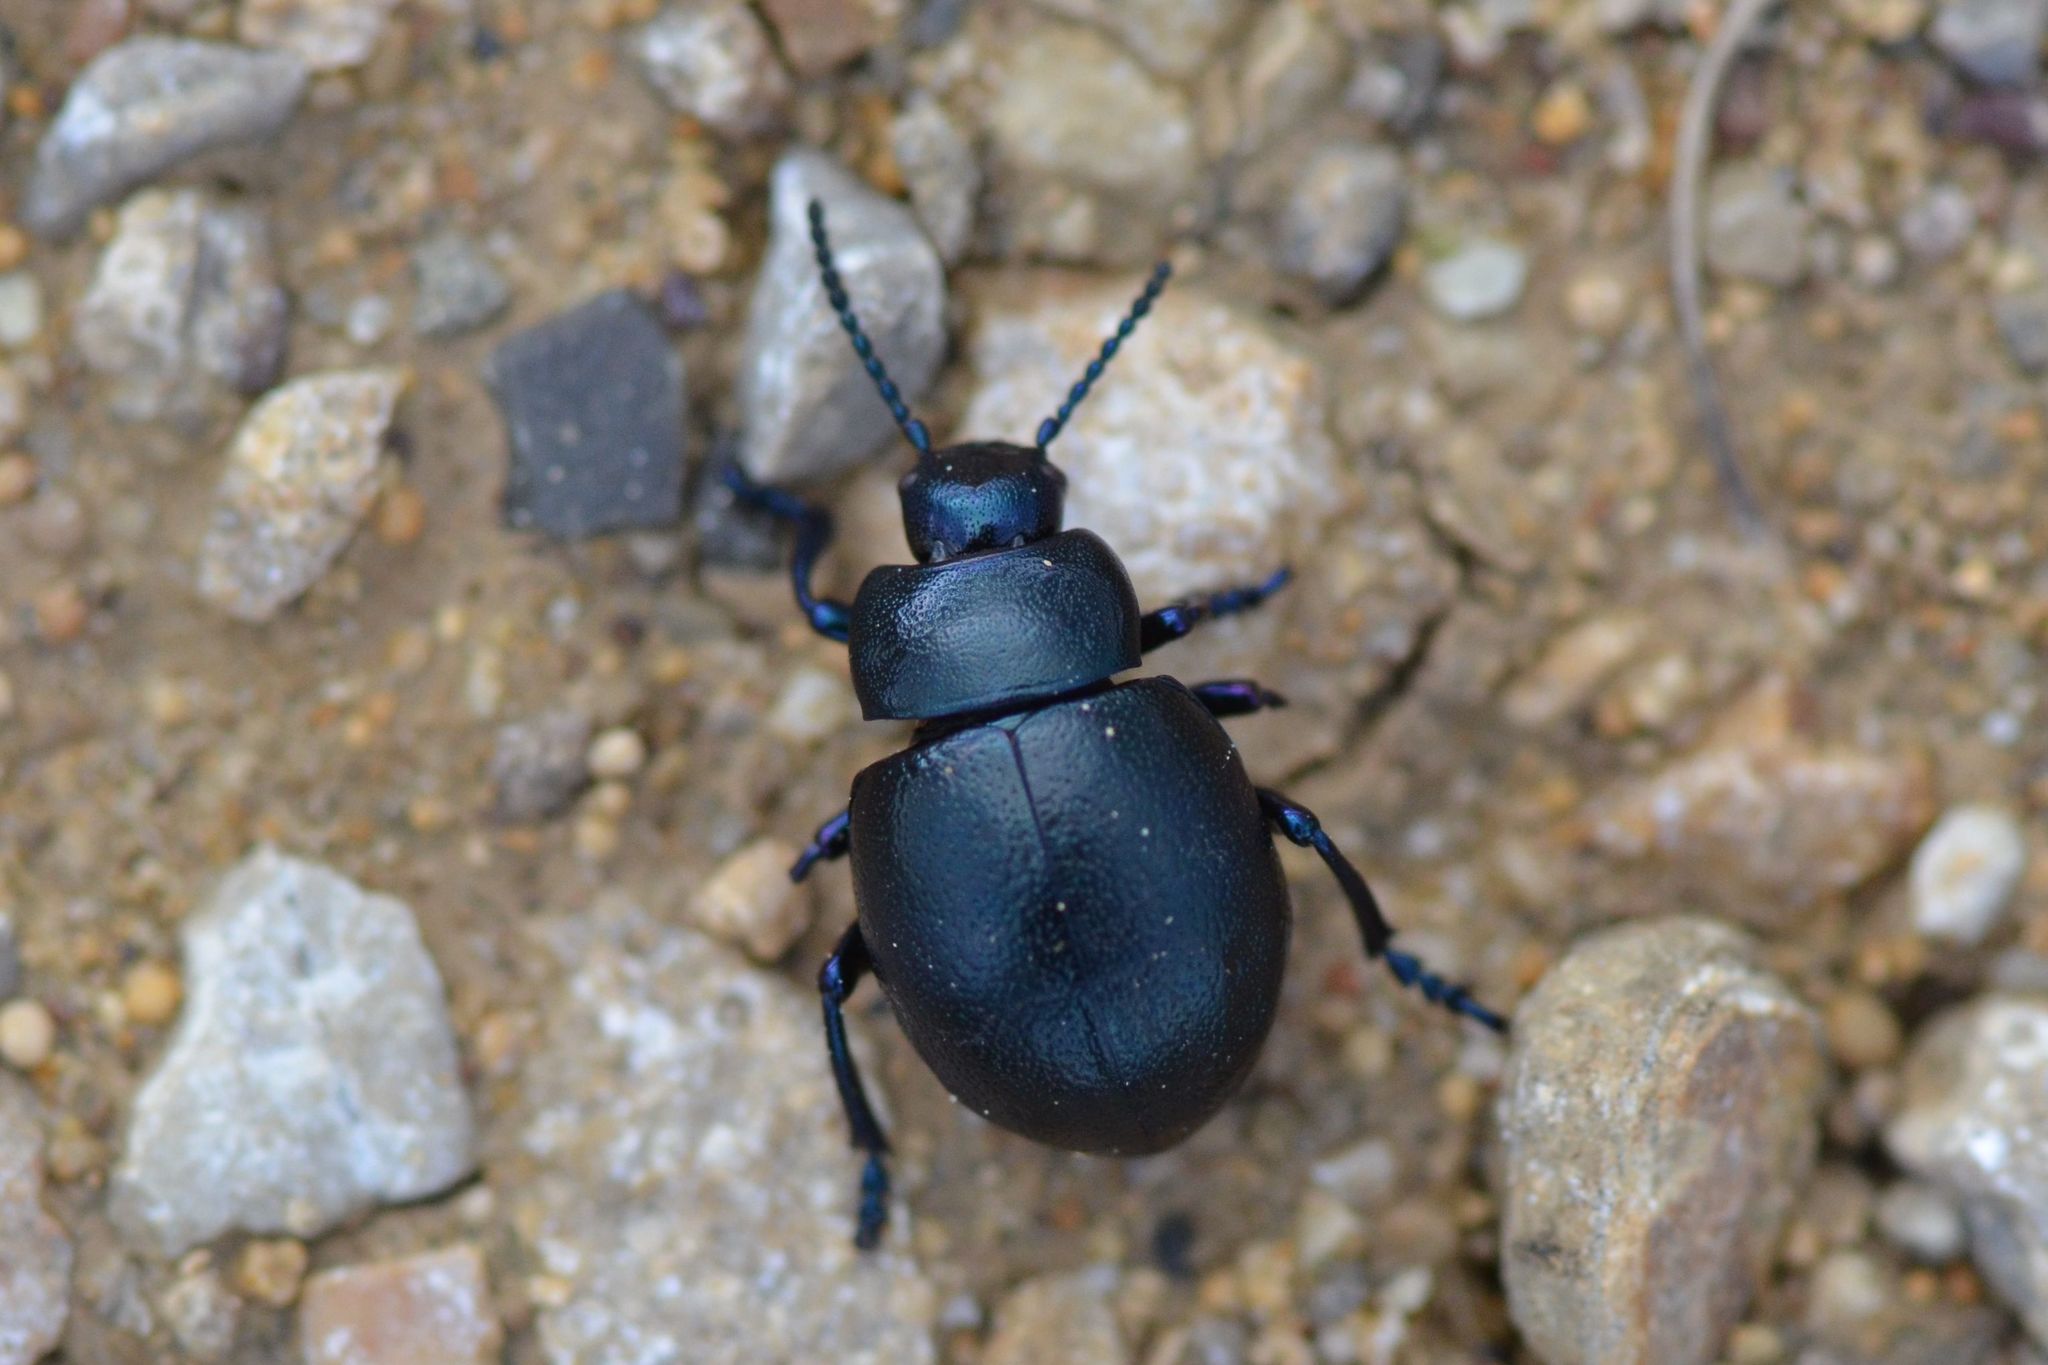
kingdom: Animalia
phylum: Arthropoda
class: Insecta
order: Coleoptera
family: Chrysomelidae
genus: Timarcha
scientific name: Timarcha goettingensis
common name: Small bloody-nosed beetle
